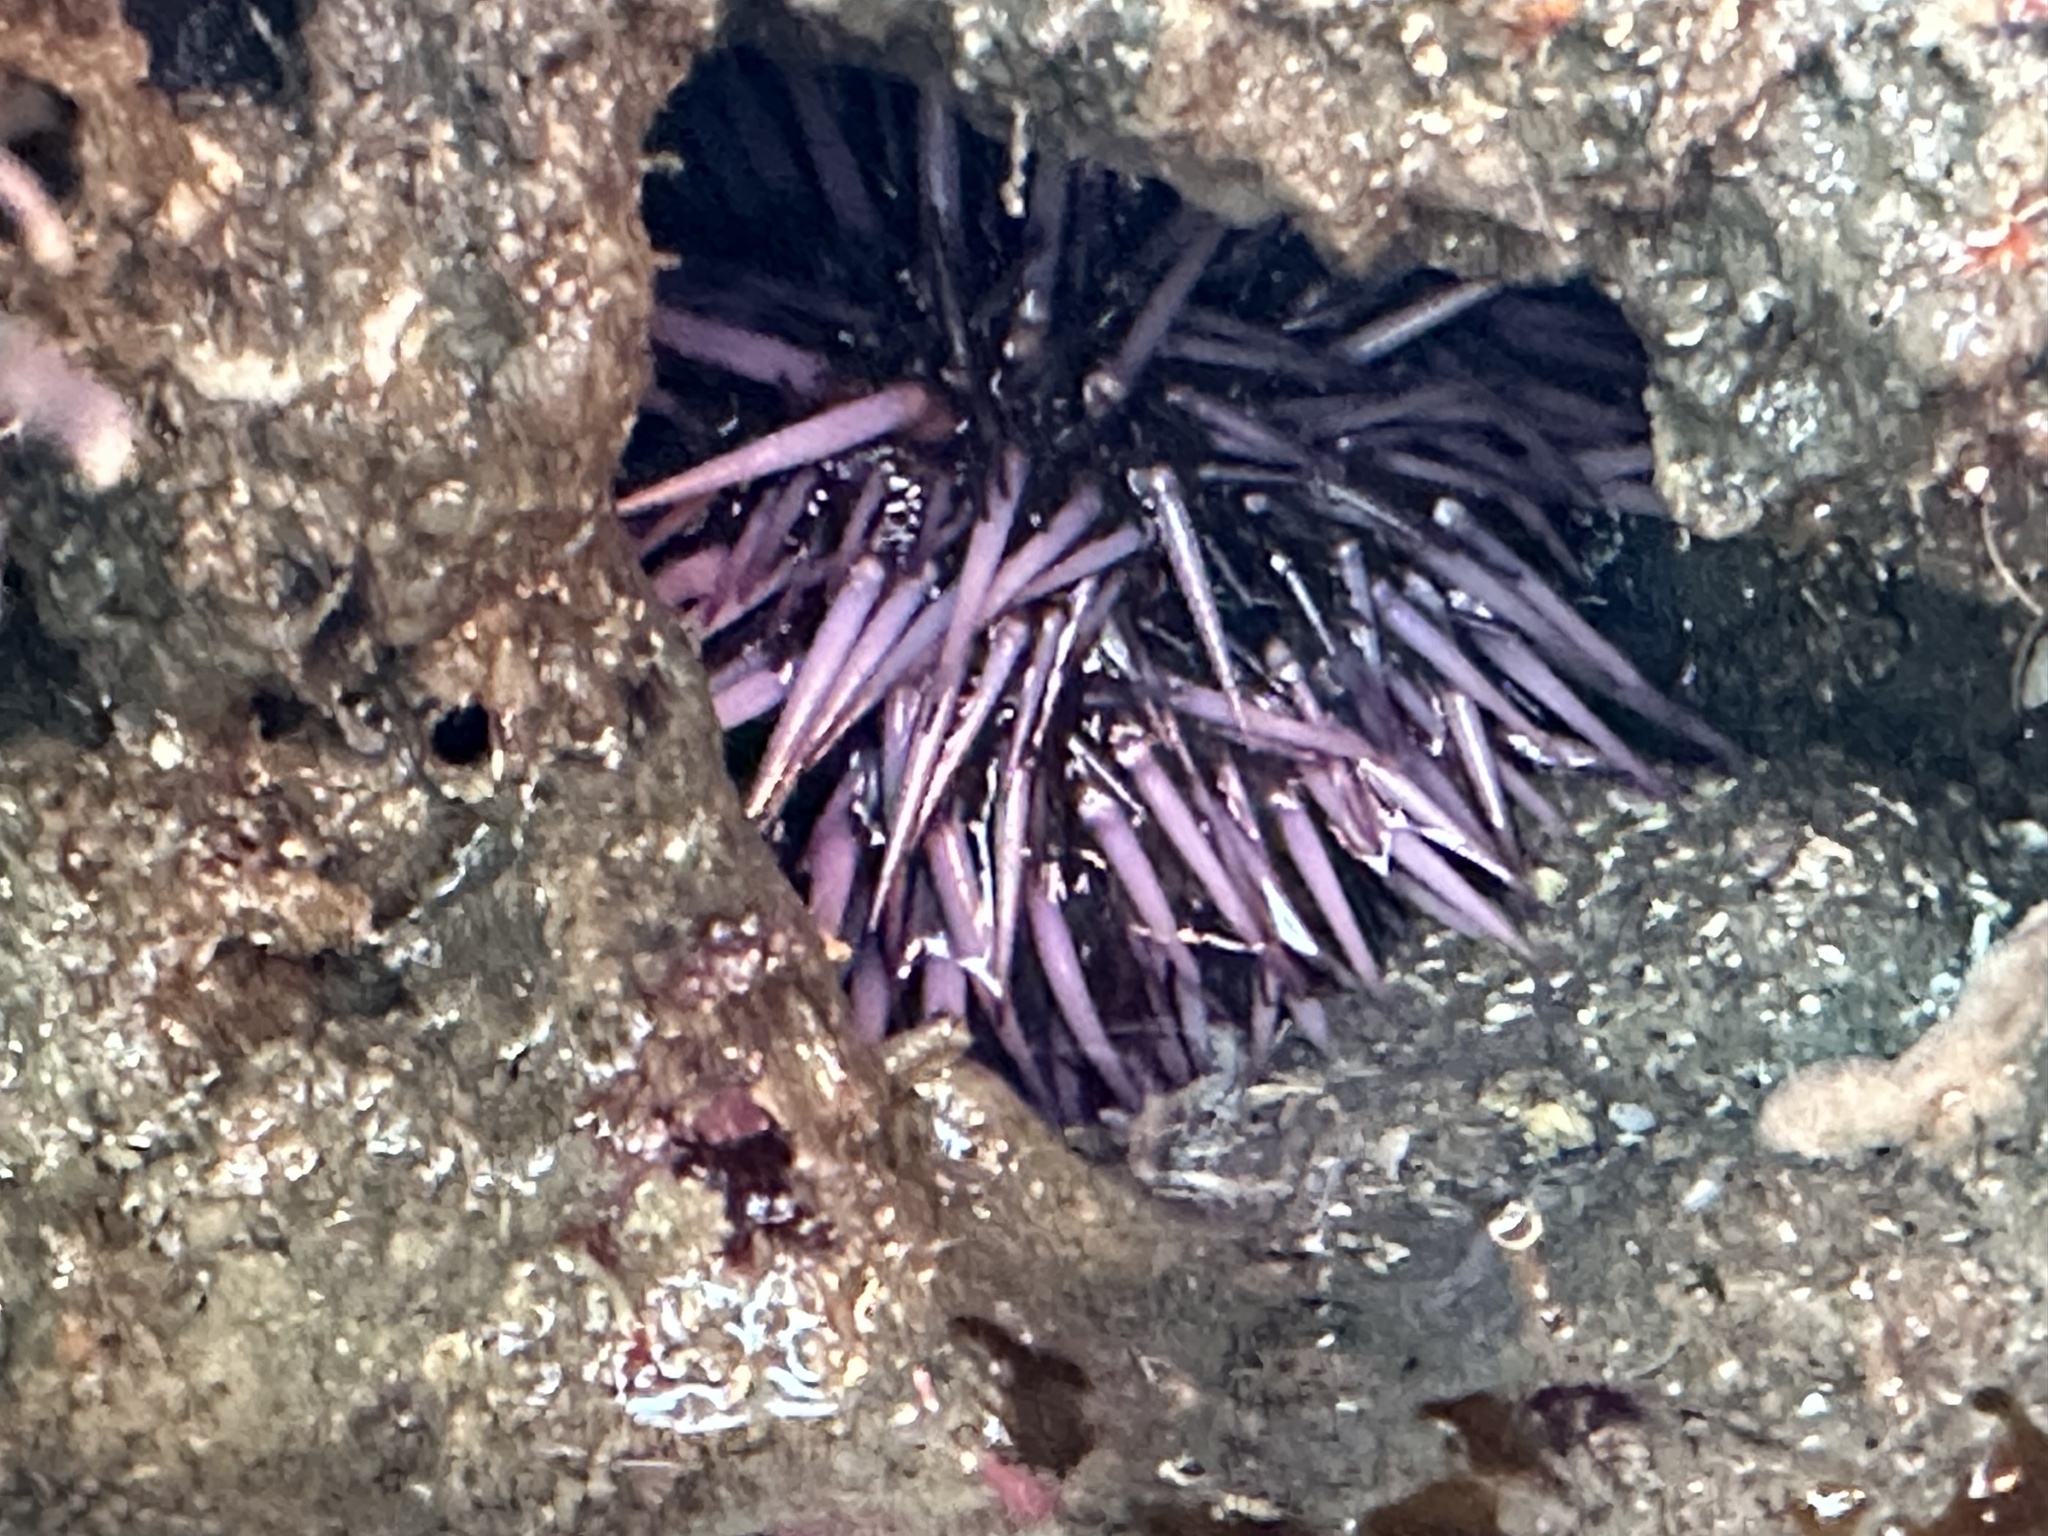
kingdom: Animalia
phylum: Echinodermata
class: Echinoidea
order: Camarodonta
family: Strongylocentrotidae
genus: Strongylocentrotus
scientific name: Strongylocentrotus purpuratus
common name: Purple sea urchin
